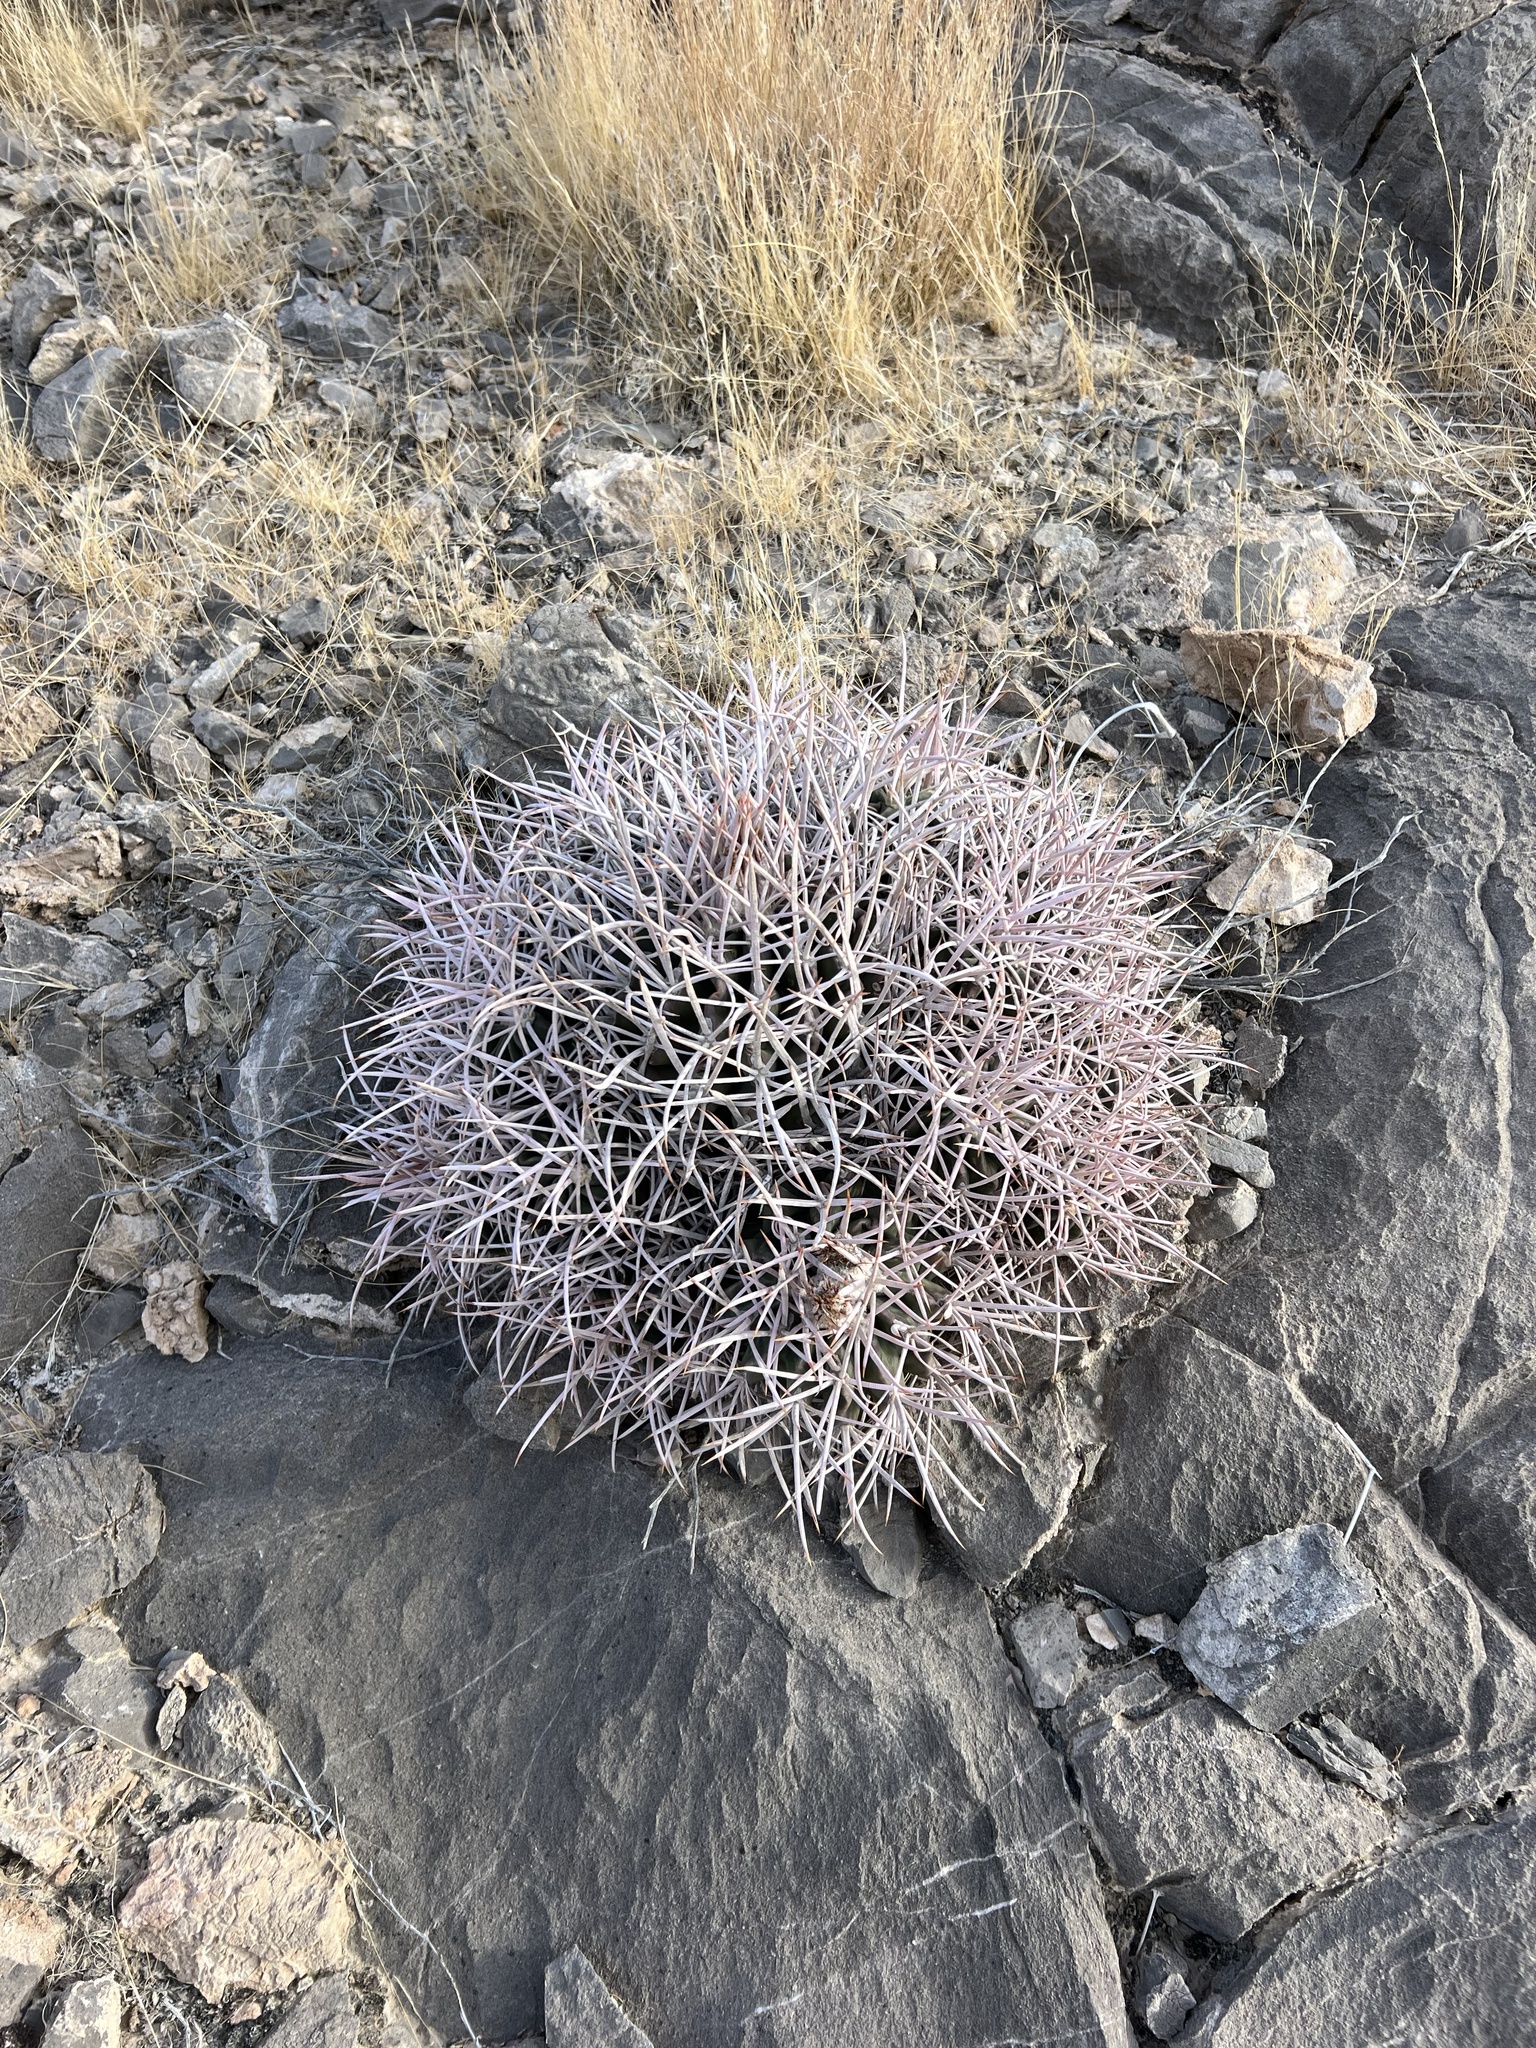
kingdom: Plantae
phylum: Tracheophyta
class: Magnoliopsida
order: Caryophyllales
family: Cactaceae
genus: Echinocactus
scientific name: Echinocactus polycephalus
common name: Cottontop cactus
